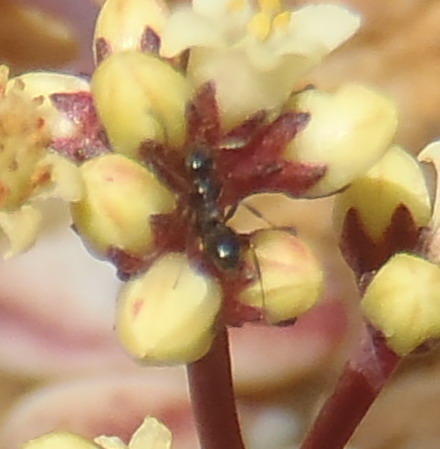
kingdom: Animalia
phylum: Arthropoda
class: Insecta
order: Hymenoptera
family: Formicidae
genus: Lepisiota
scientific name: Lepisiota capensis
